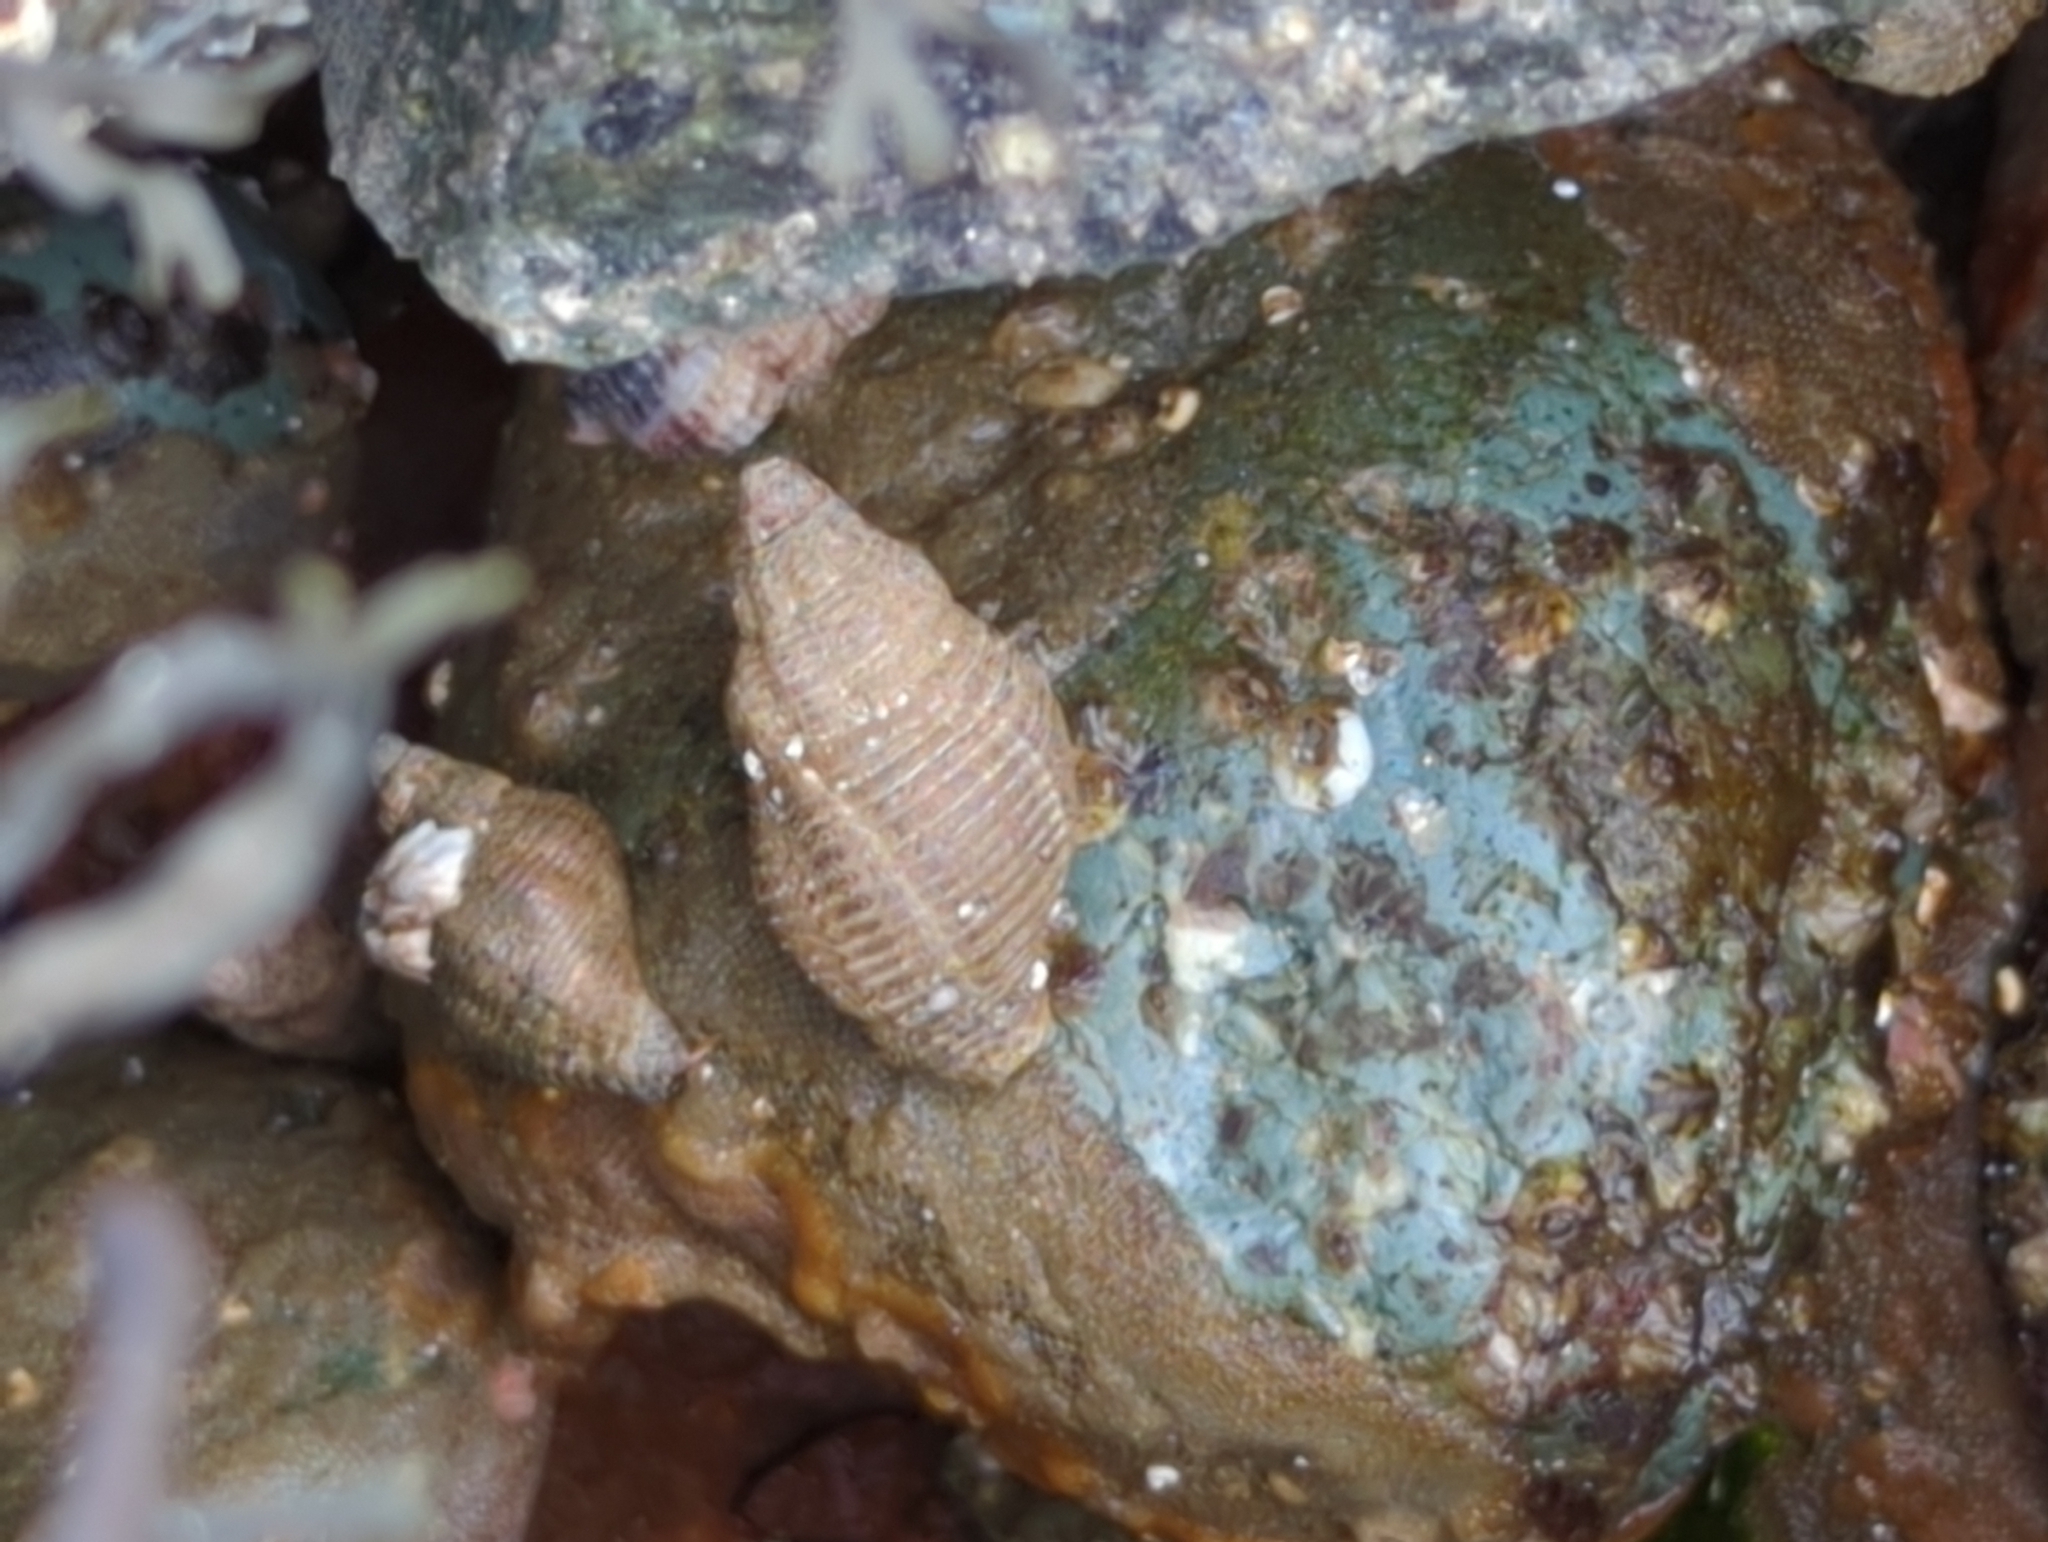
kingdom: Animalia
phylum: Mollusca
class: Gastropoda
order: Neogastropoda
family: Tudiclidae
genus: Lirabuccinum
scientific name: Lirabuccinum dirum
